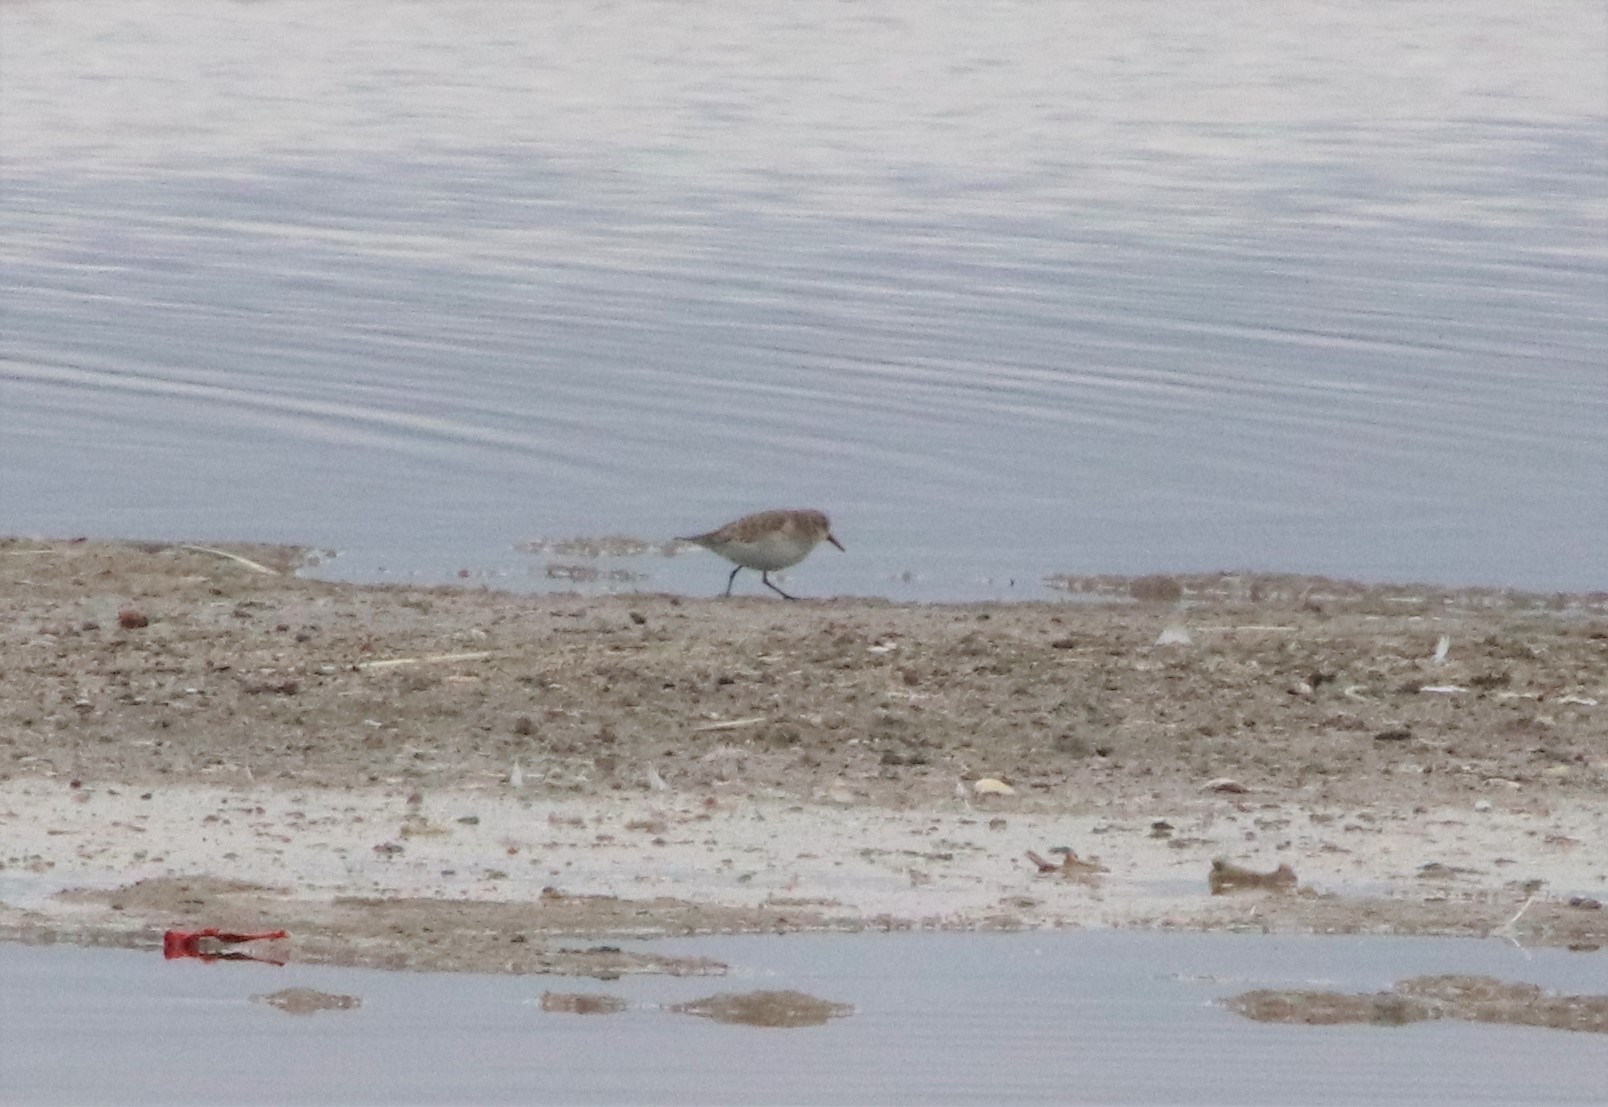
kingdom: Animalia
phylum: Chordata
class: Aves
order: Charadriiformes
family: Scolopacidae
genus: Calidris
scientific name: Calidris minuta
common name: Little stint
